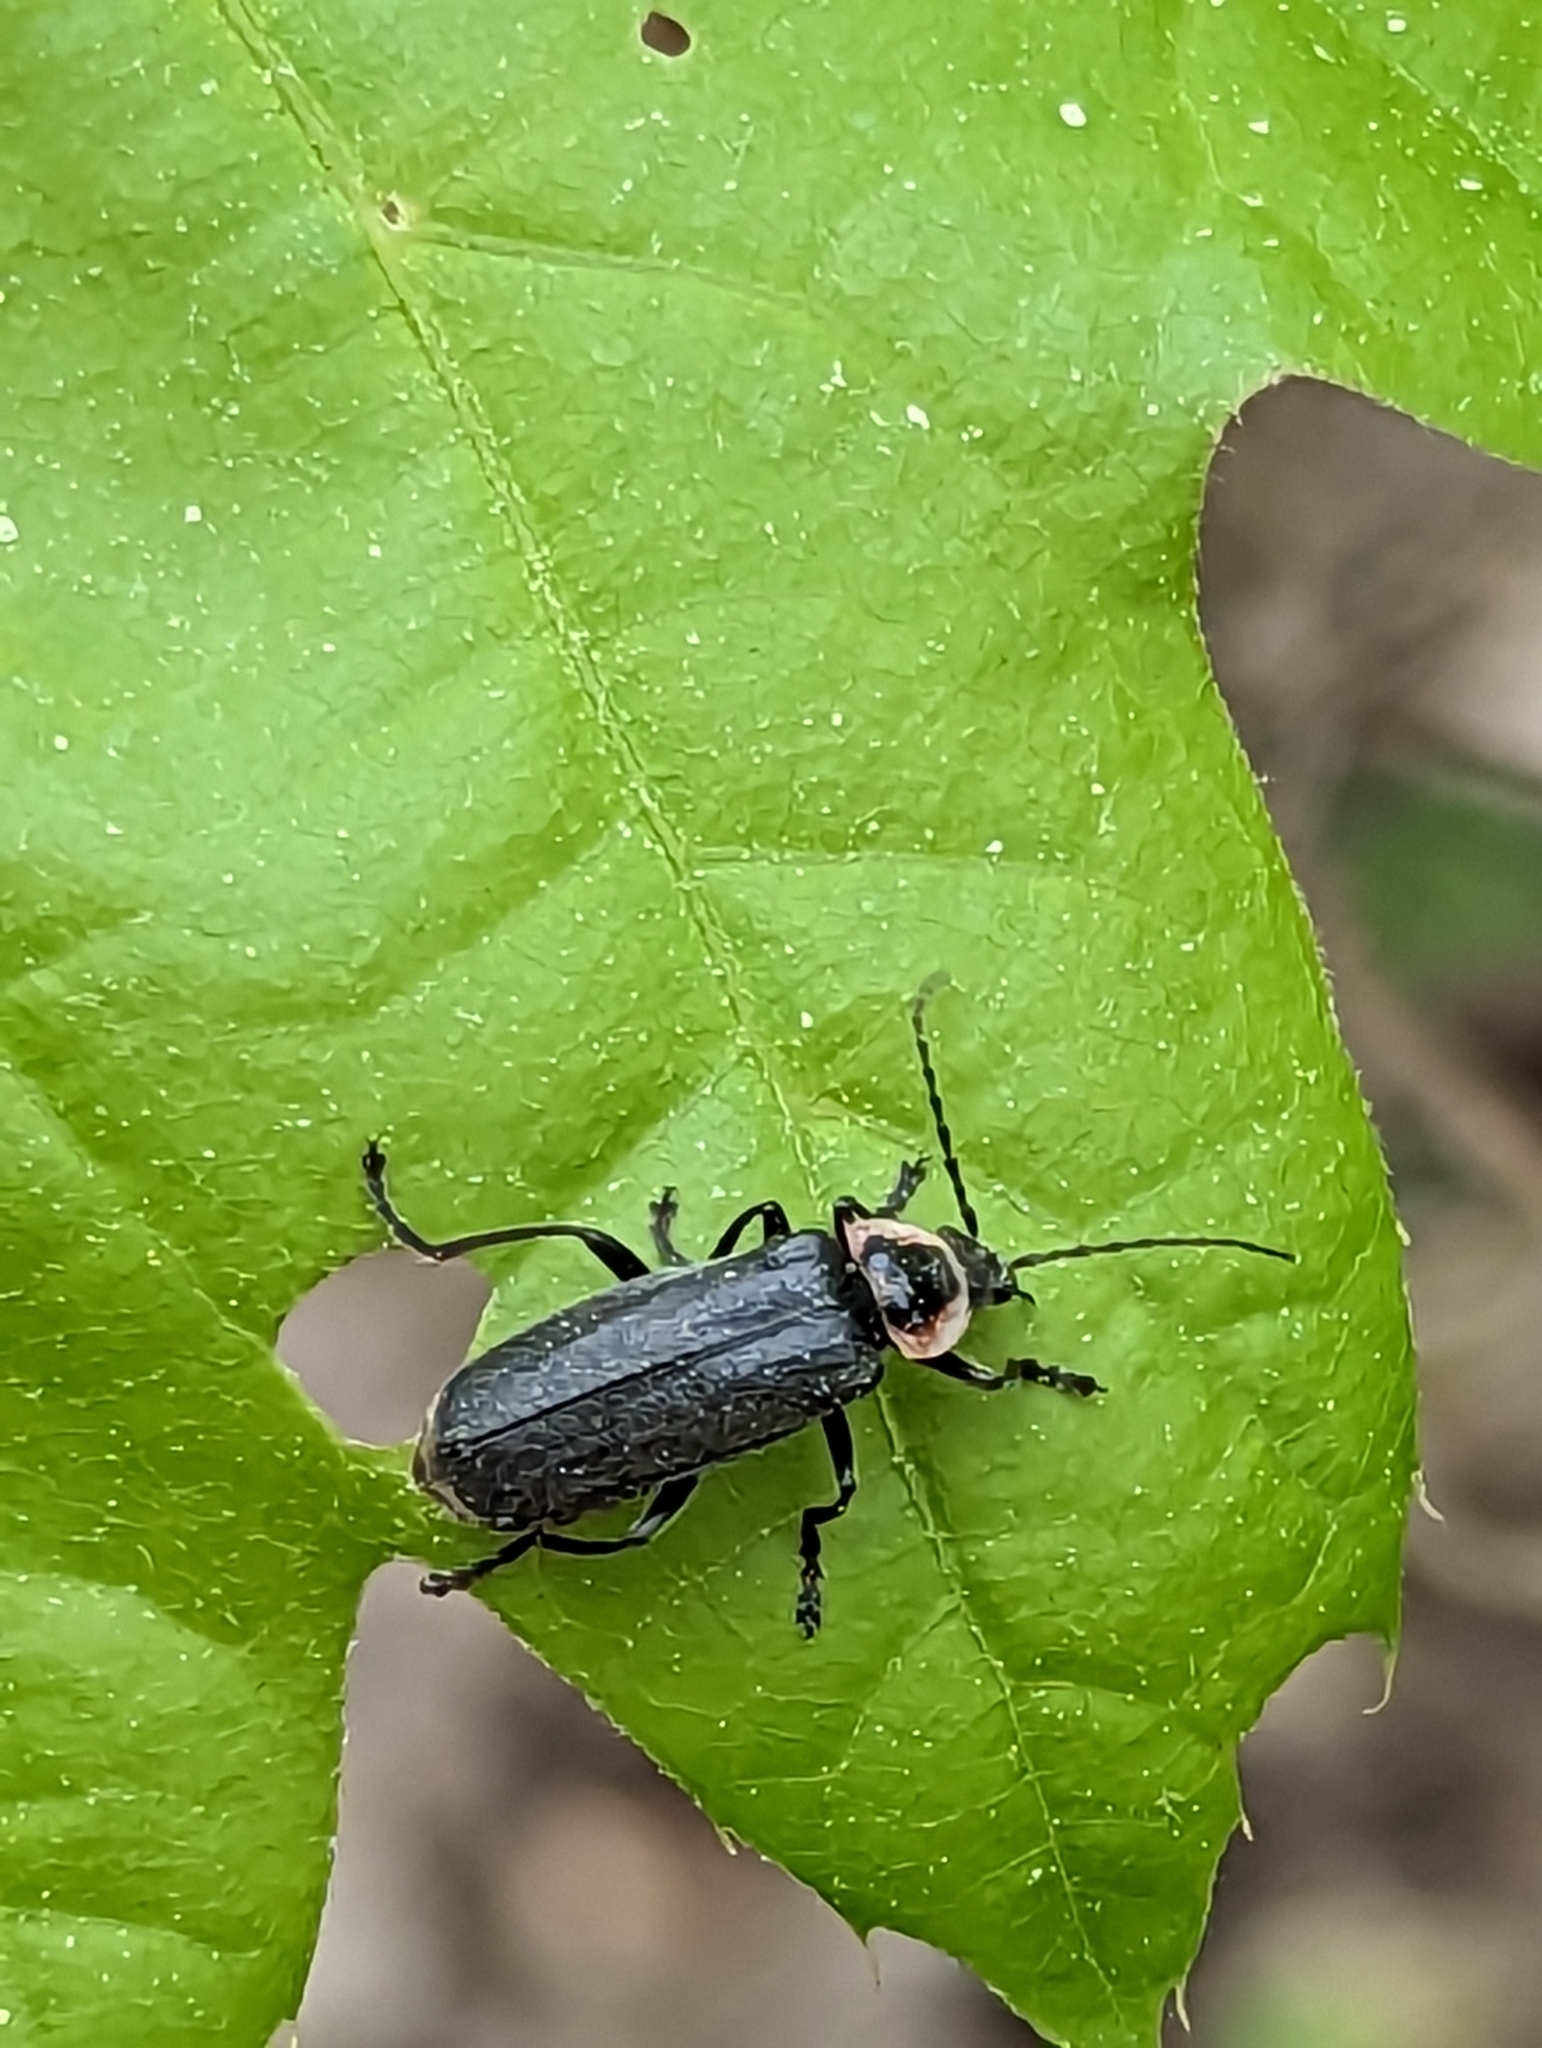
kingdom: Animalia
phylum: Arthropoda
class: Insecta
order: Coleoptera
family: Cantharidae
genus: Atalantycha
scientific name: Atalantycha neglecta
